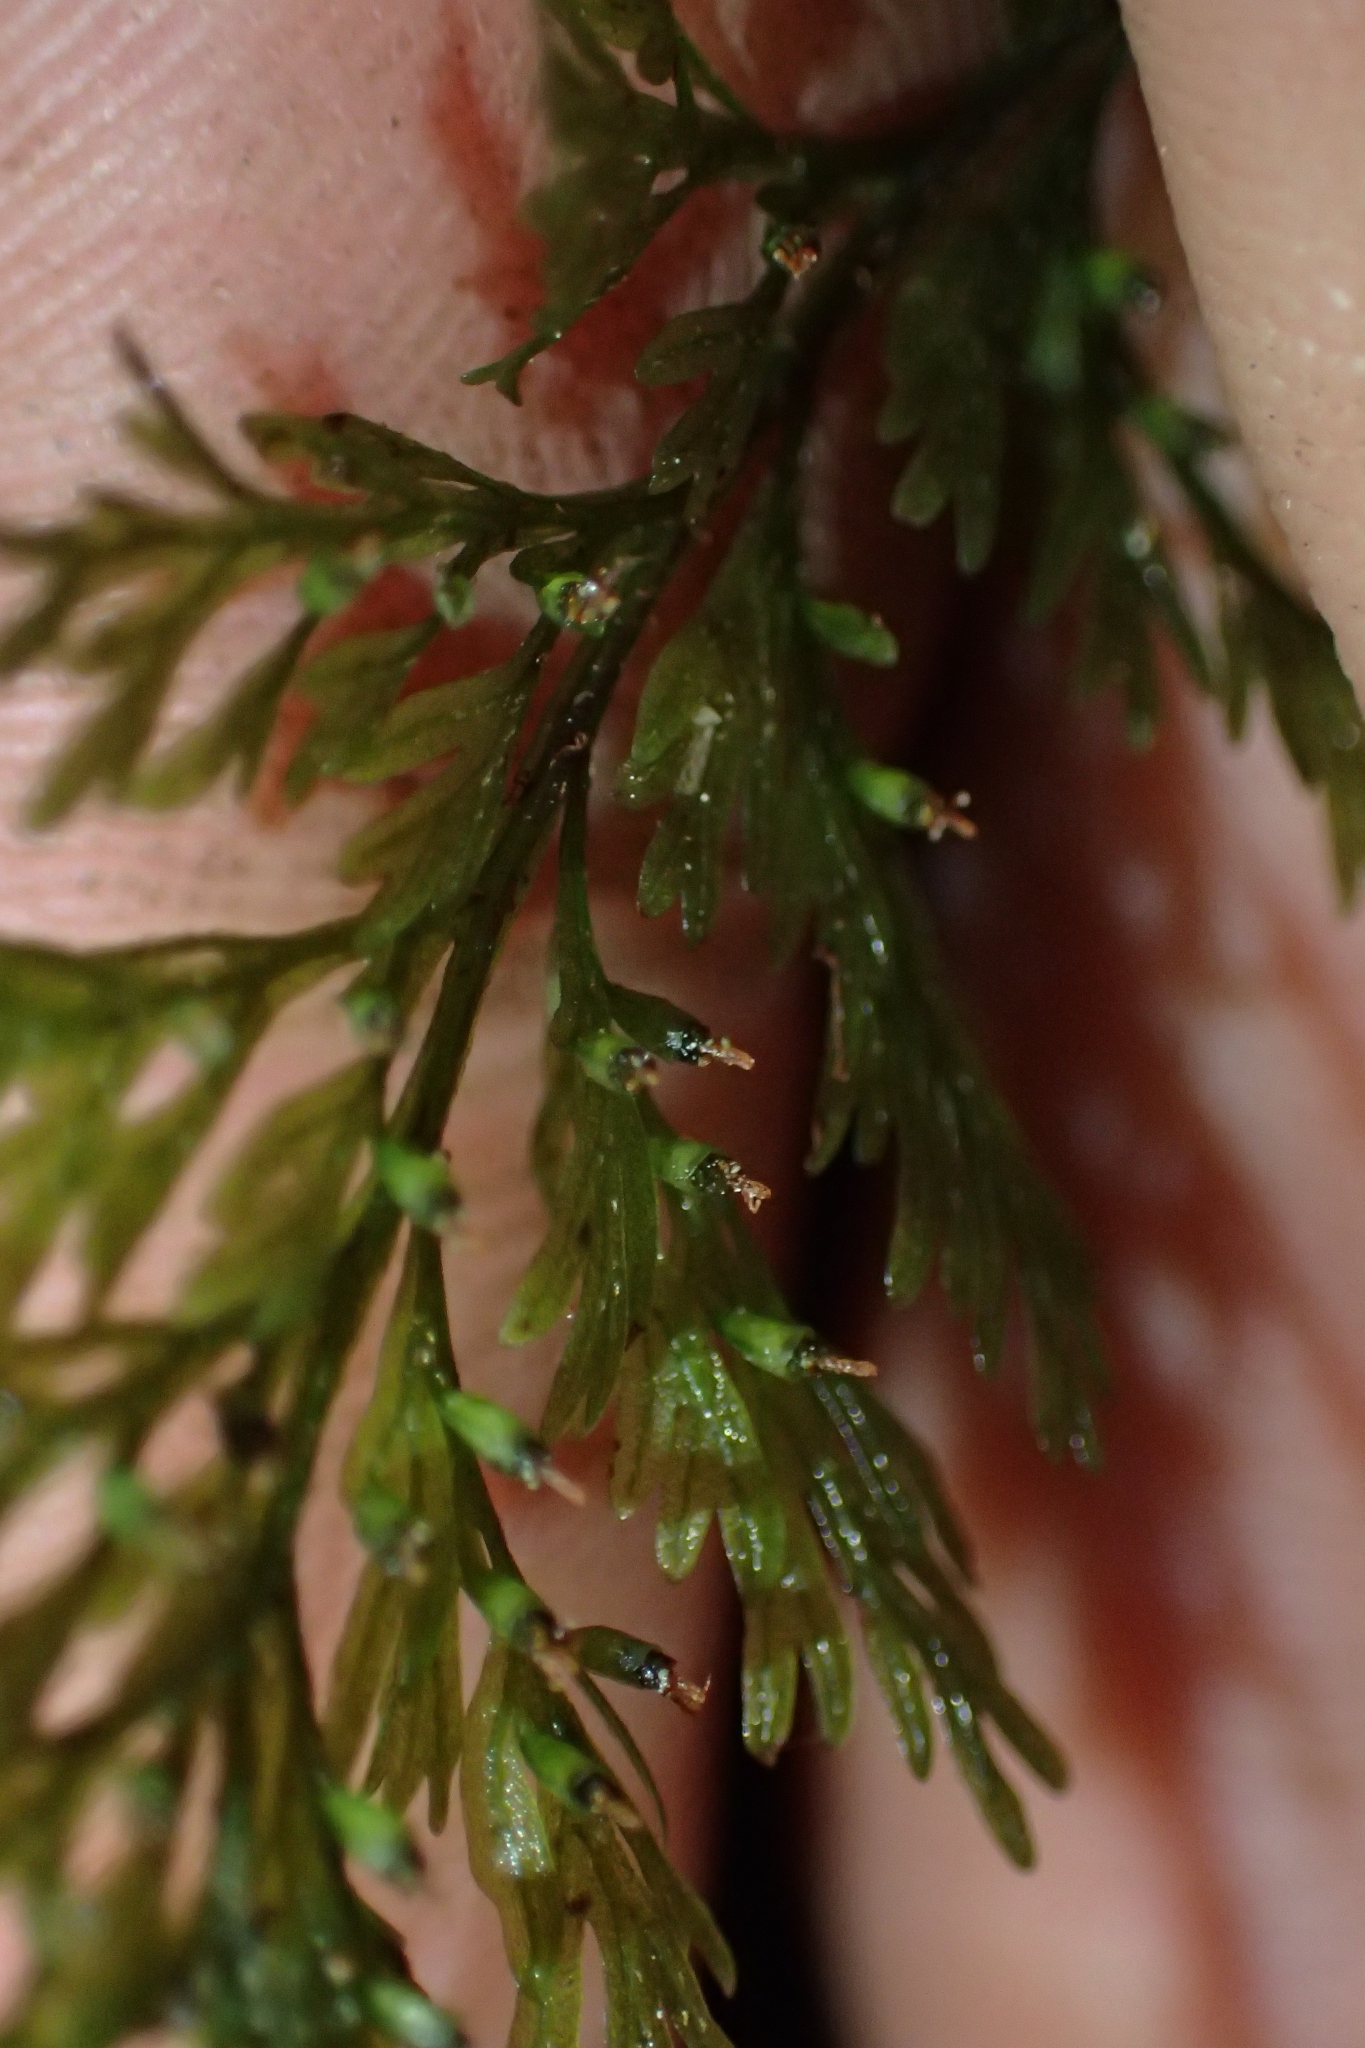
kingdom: Plantae
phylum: Tracheophyta
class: Polypodiopsida
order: Hymenophyllales
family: Hymenophyllaceae
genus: Abrodictyum
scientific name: Abrodictyum strictum
